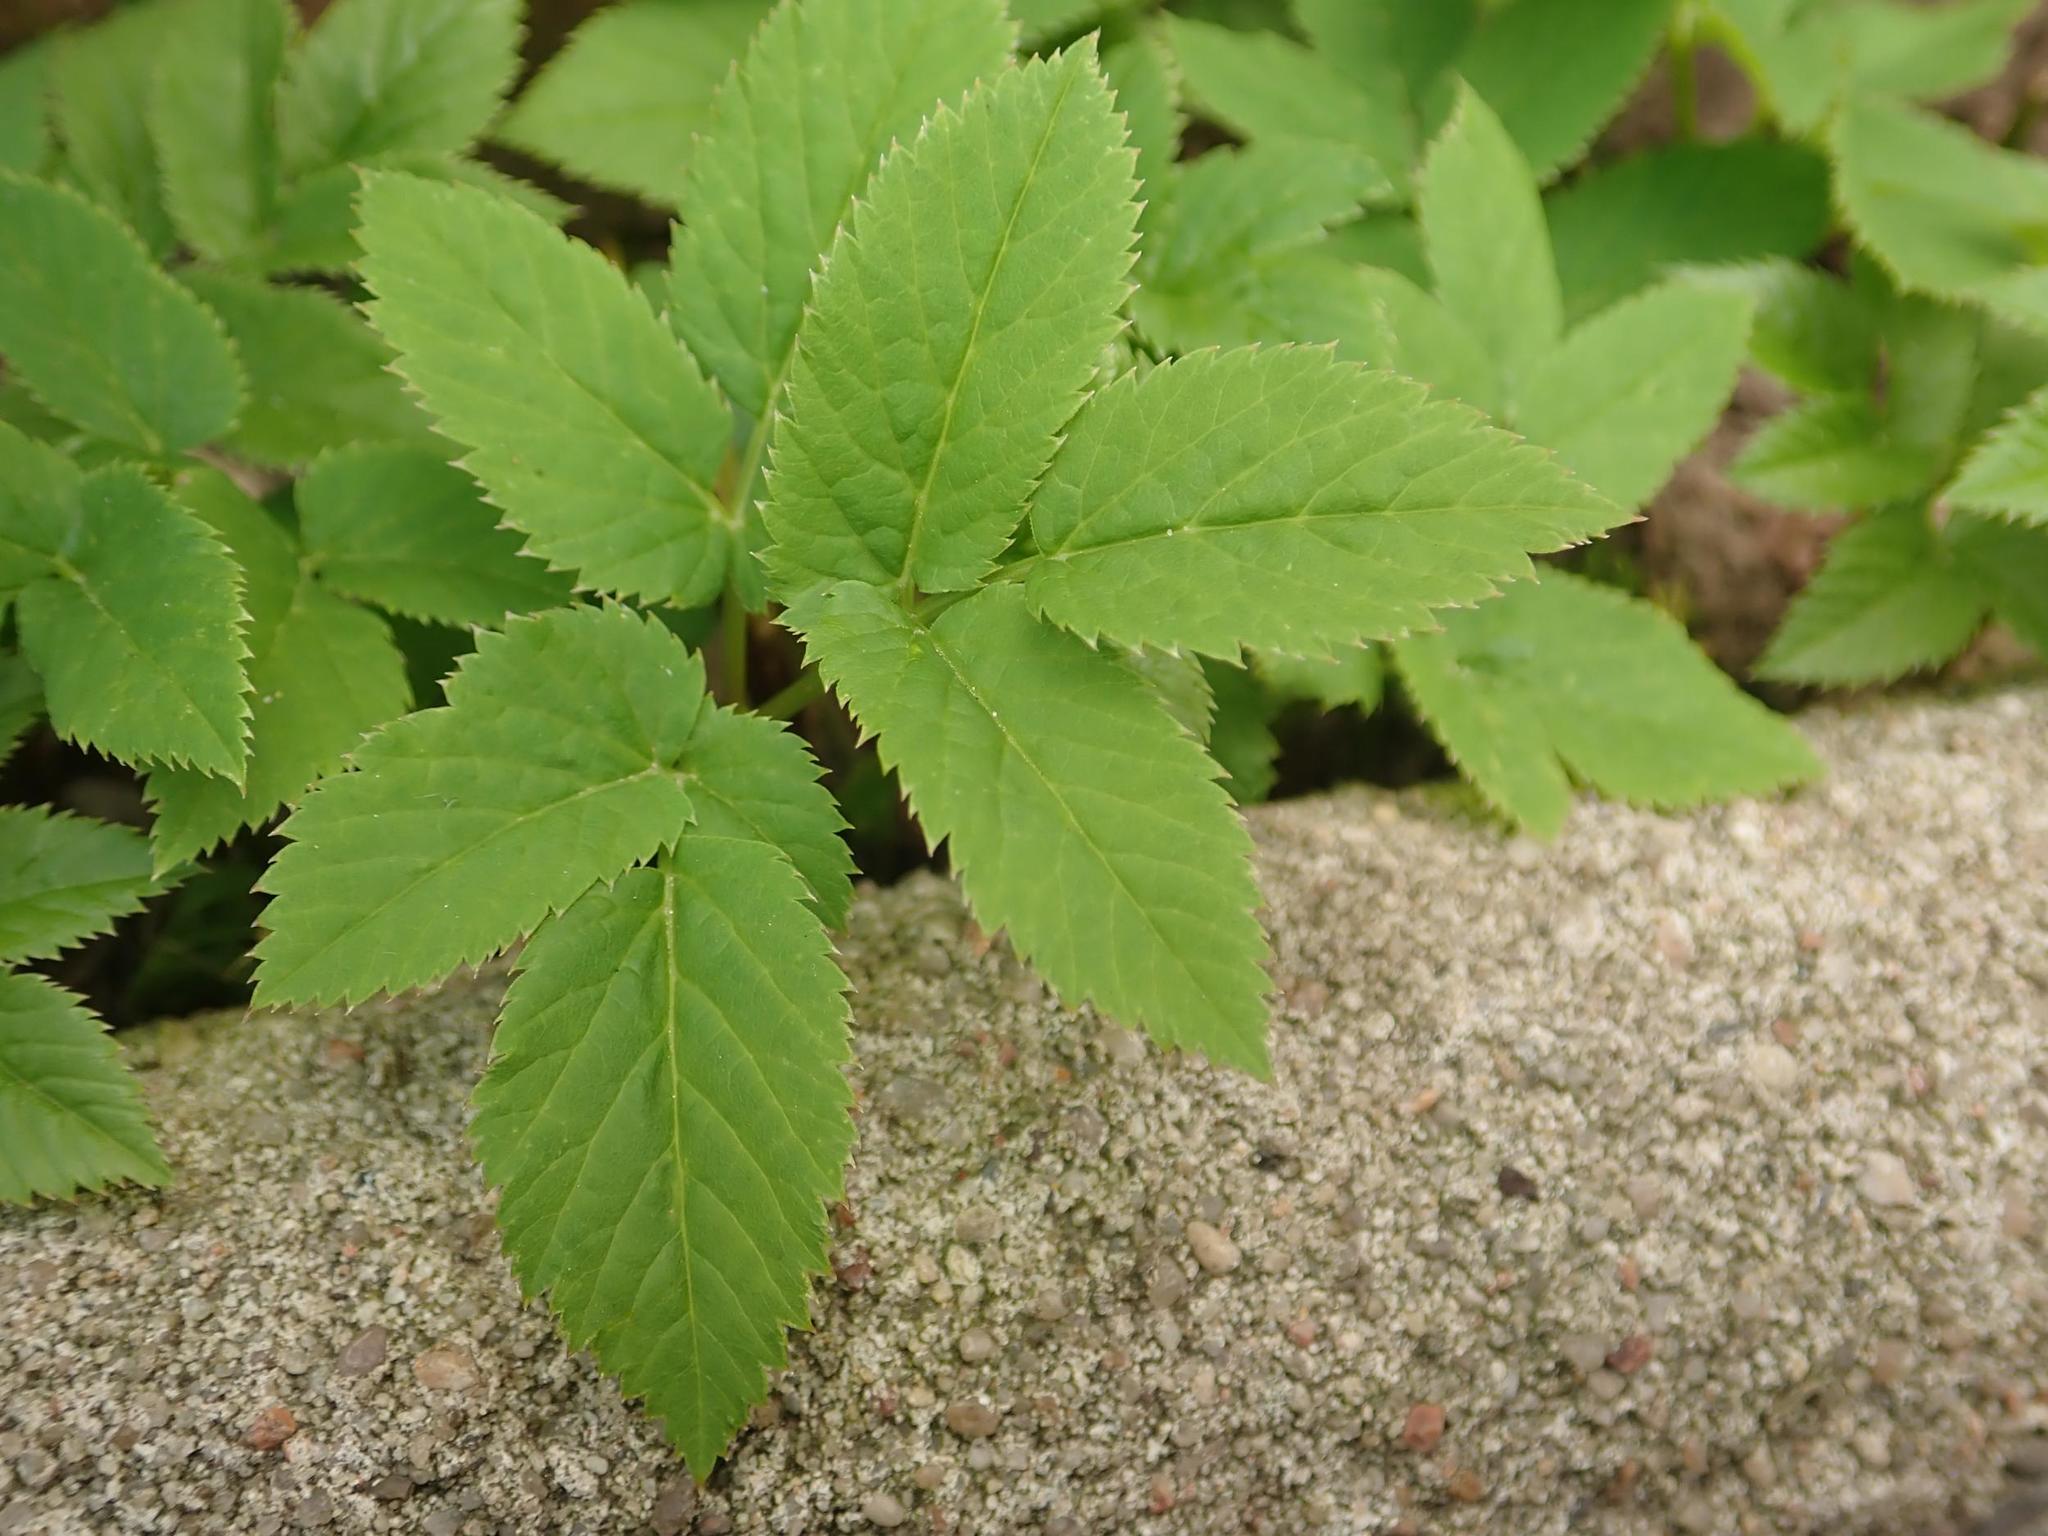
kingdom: Plantae
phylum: Tracheophyta
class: Magnoliopsida
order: Apiales
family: Apiaceae
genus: Aegopodium
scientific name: Aegopodium podagraria
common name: Ground-elder
